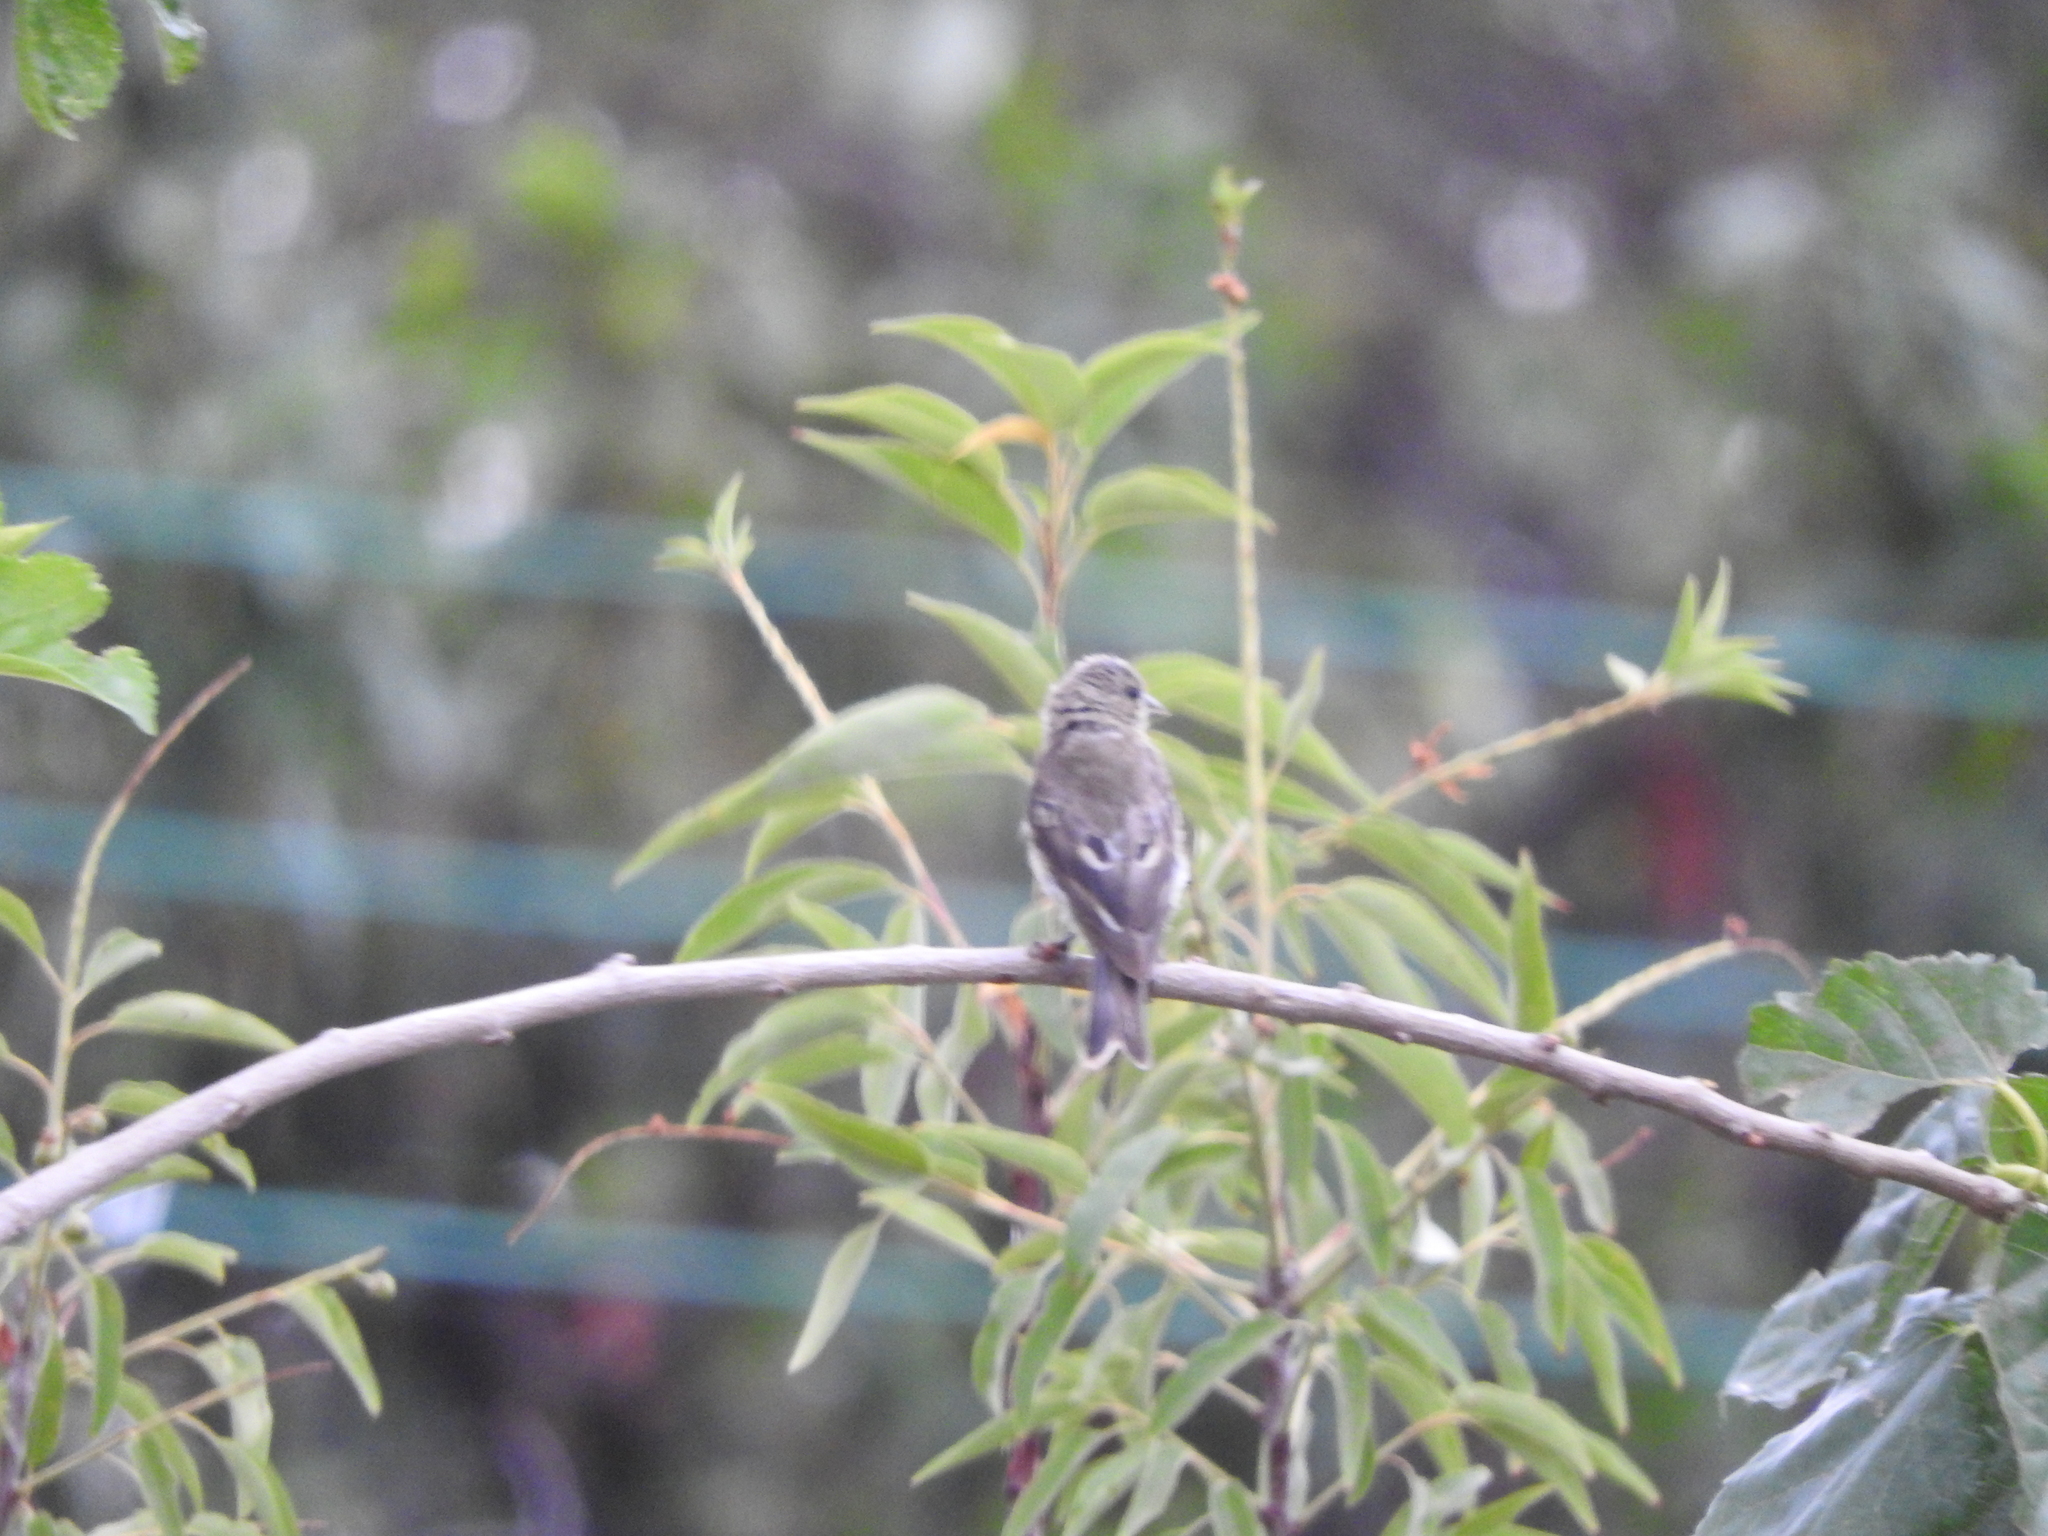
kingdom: Animalia
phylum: Chordata
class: Aves
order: Passeriformes
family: Fringillidae
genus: Spinus
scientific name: Spinus psaltria
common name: Lesser goldfinch
